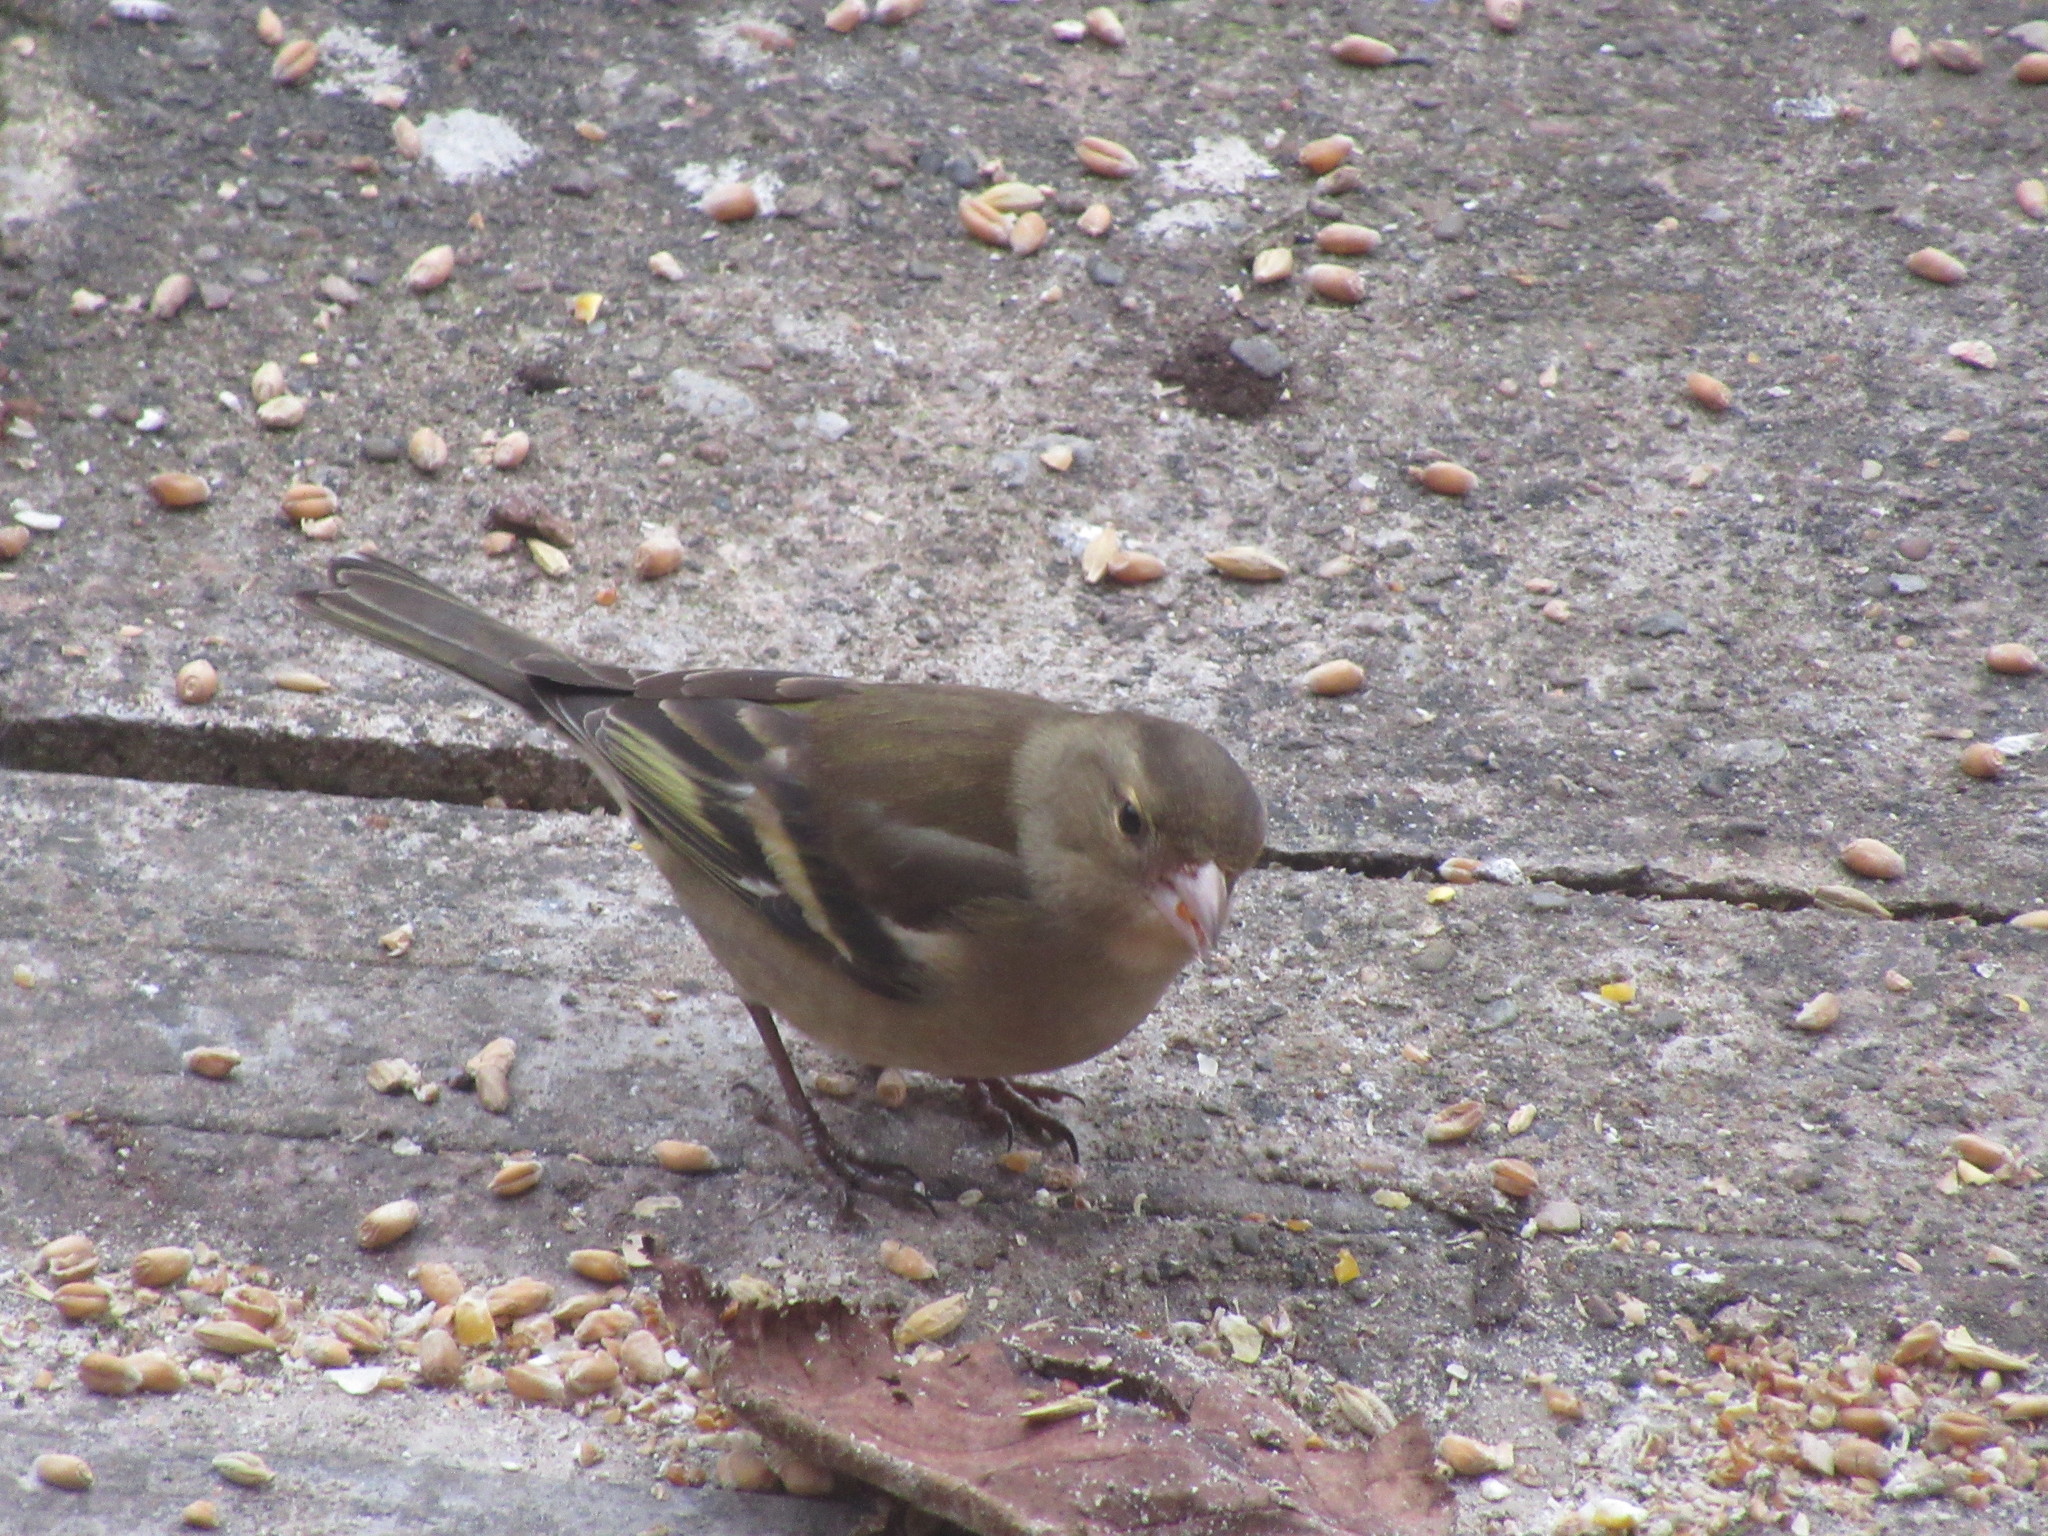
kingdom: Animalia
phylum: Chordata
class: Aves
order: Passeriformes
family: Fringillidae
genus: Fringilla
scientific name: Fringilla coelebs
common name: Common chaffinch
